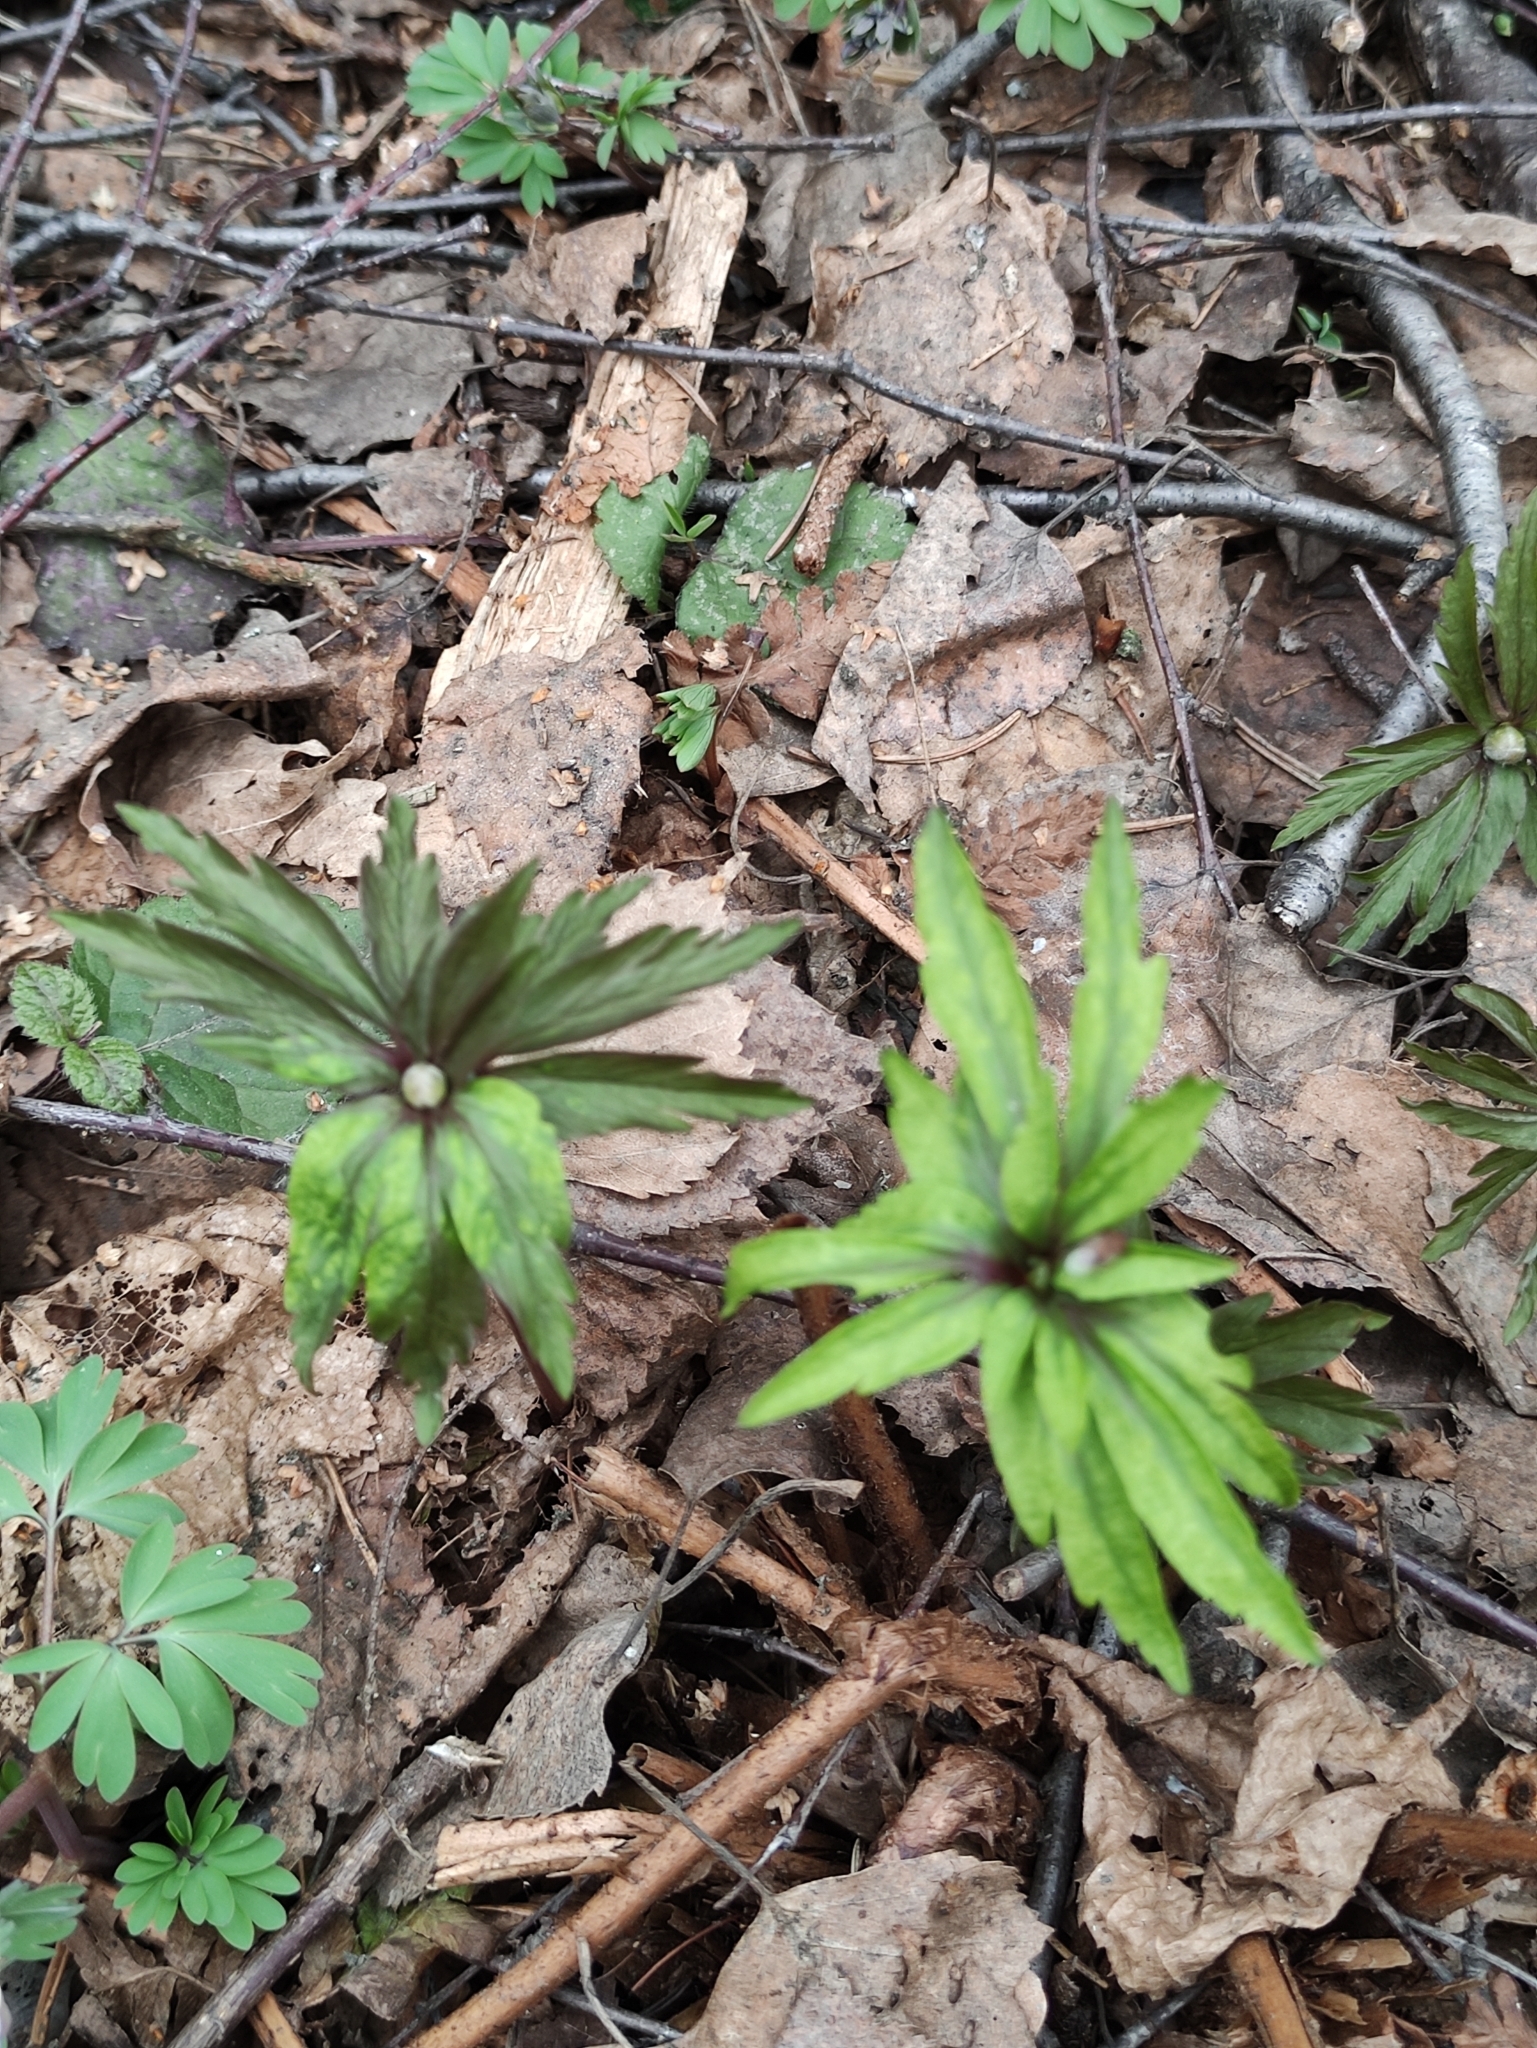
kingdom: Plantae
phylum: Tracheophyta
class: Magnoliopsida
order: Ranunculales
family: Ranunculaceae
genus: Anemone
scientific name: Anemone ranunculoides
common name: Yellow anemone
